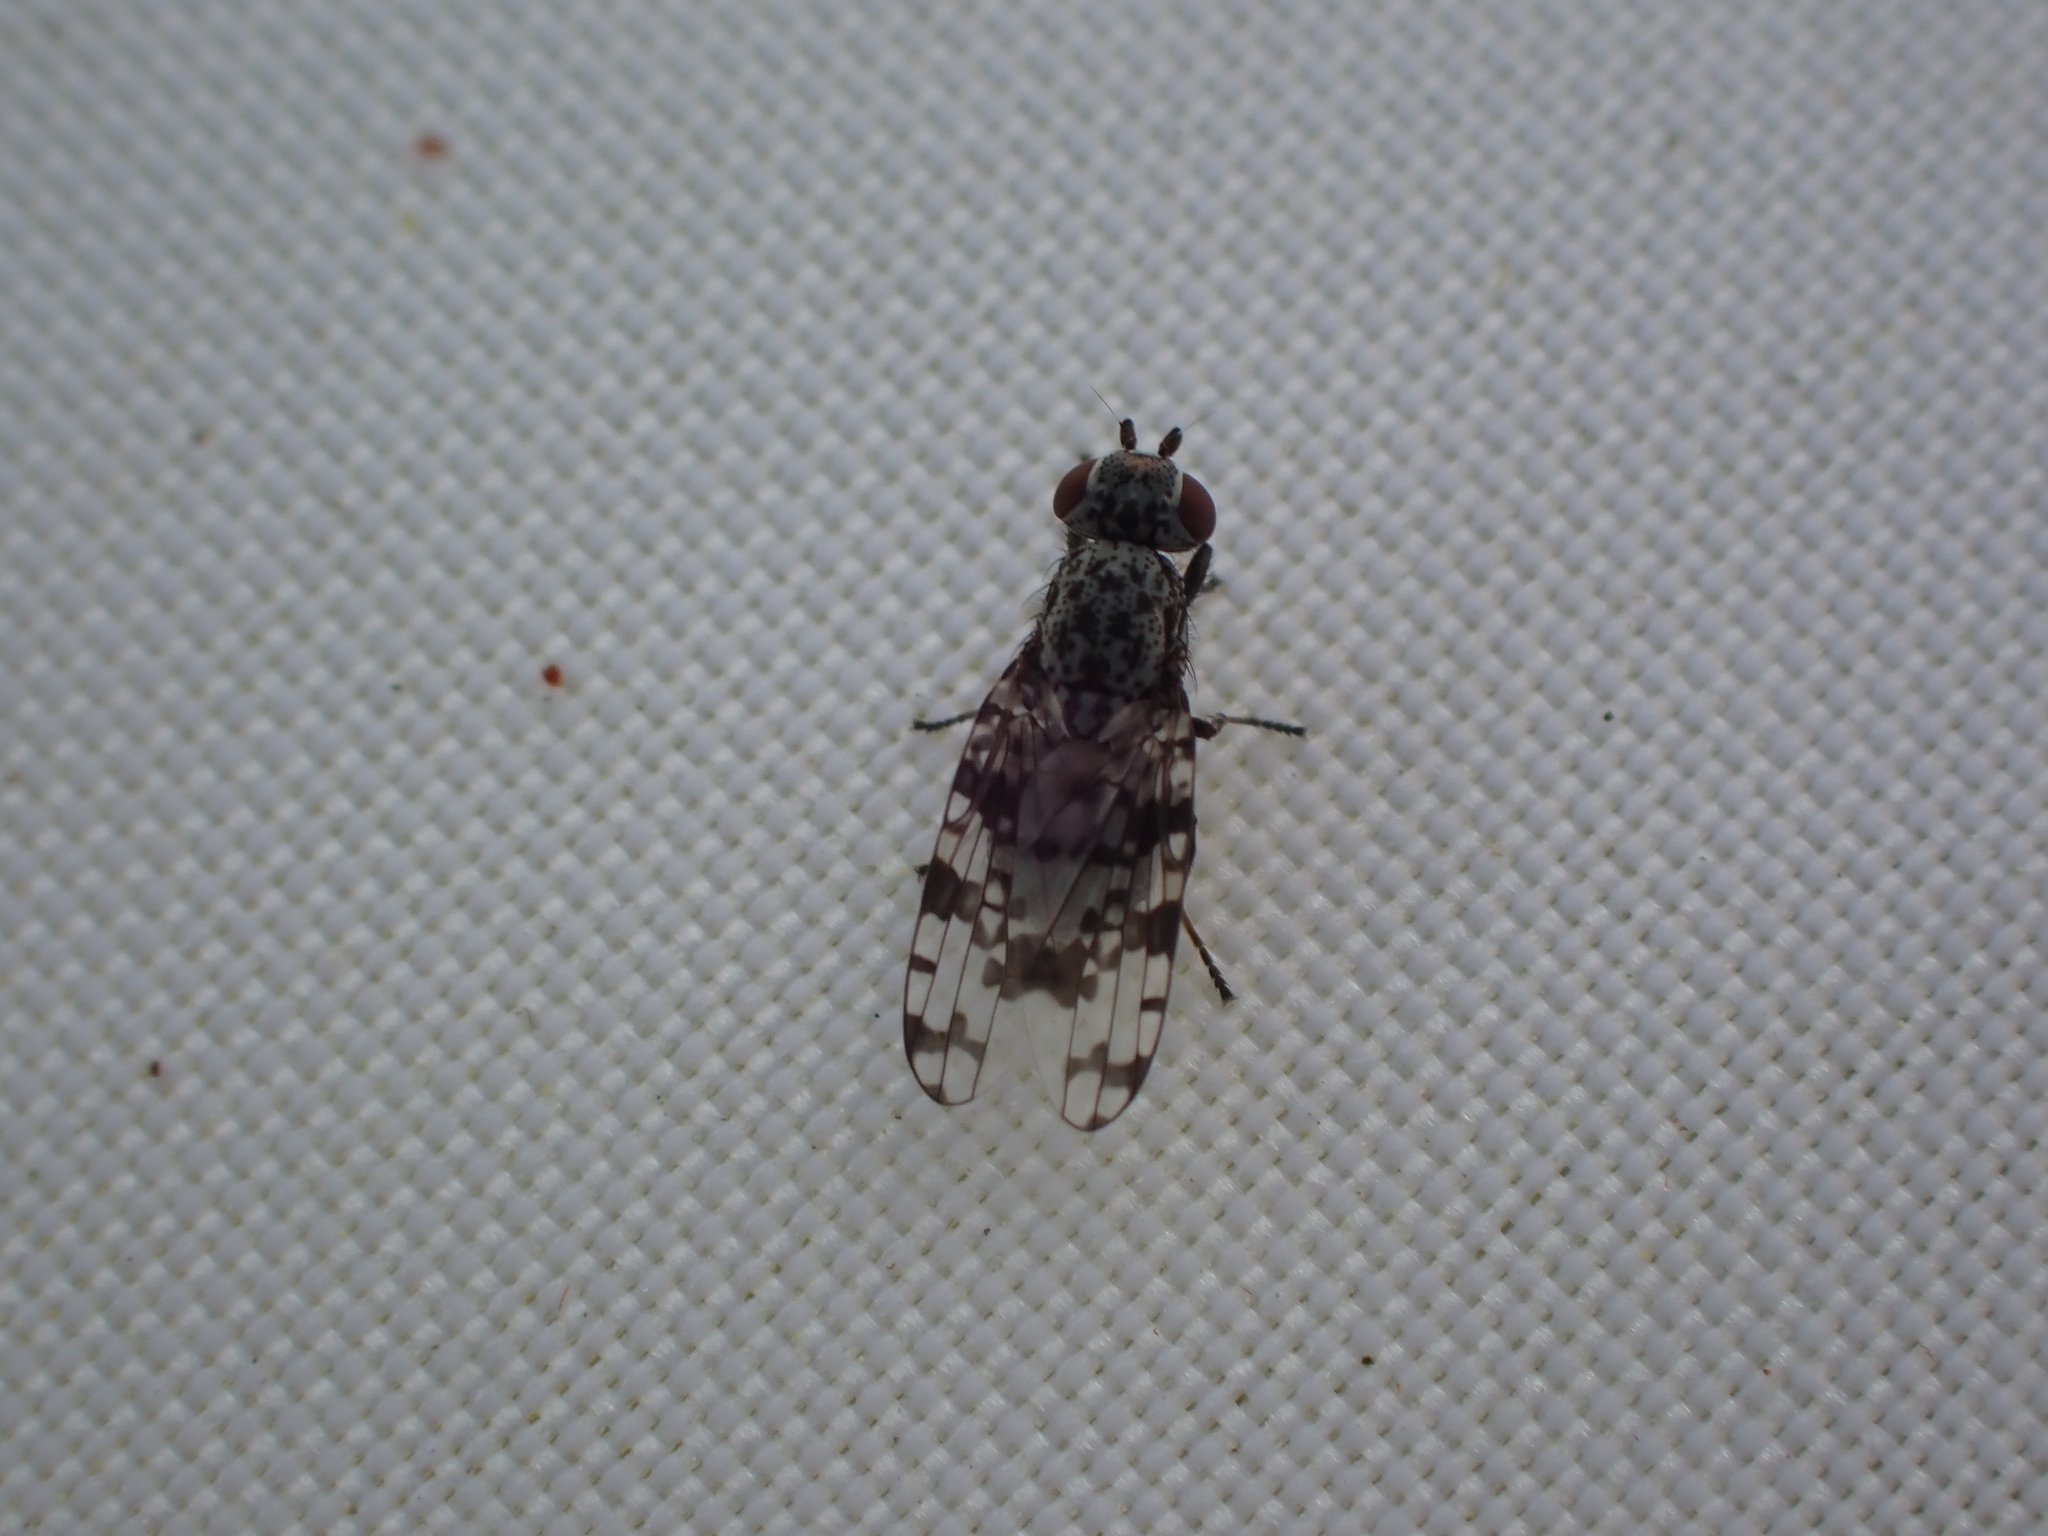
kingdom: Animalia
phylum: Arthropoda
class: Insecta
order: Diptera
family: Ulidiidae
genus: Pseudotephritis
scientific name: Pseudotephritis corticalis
